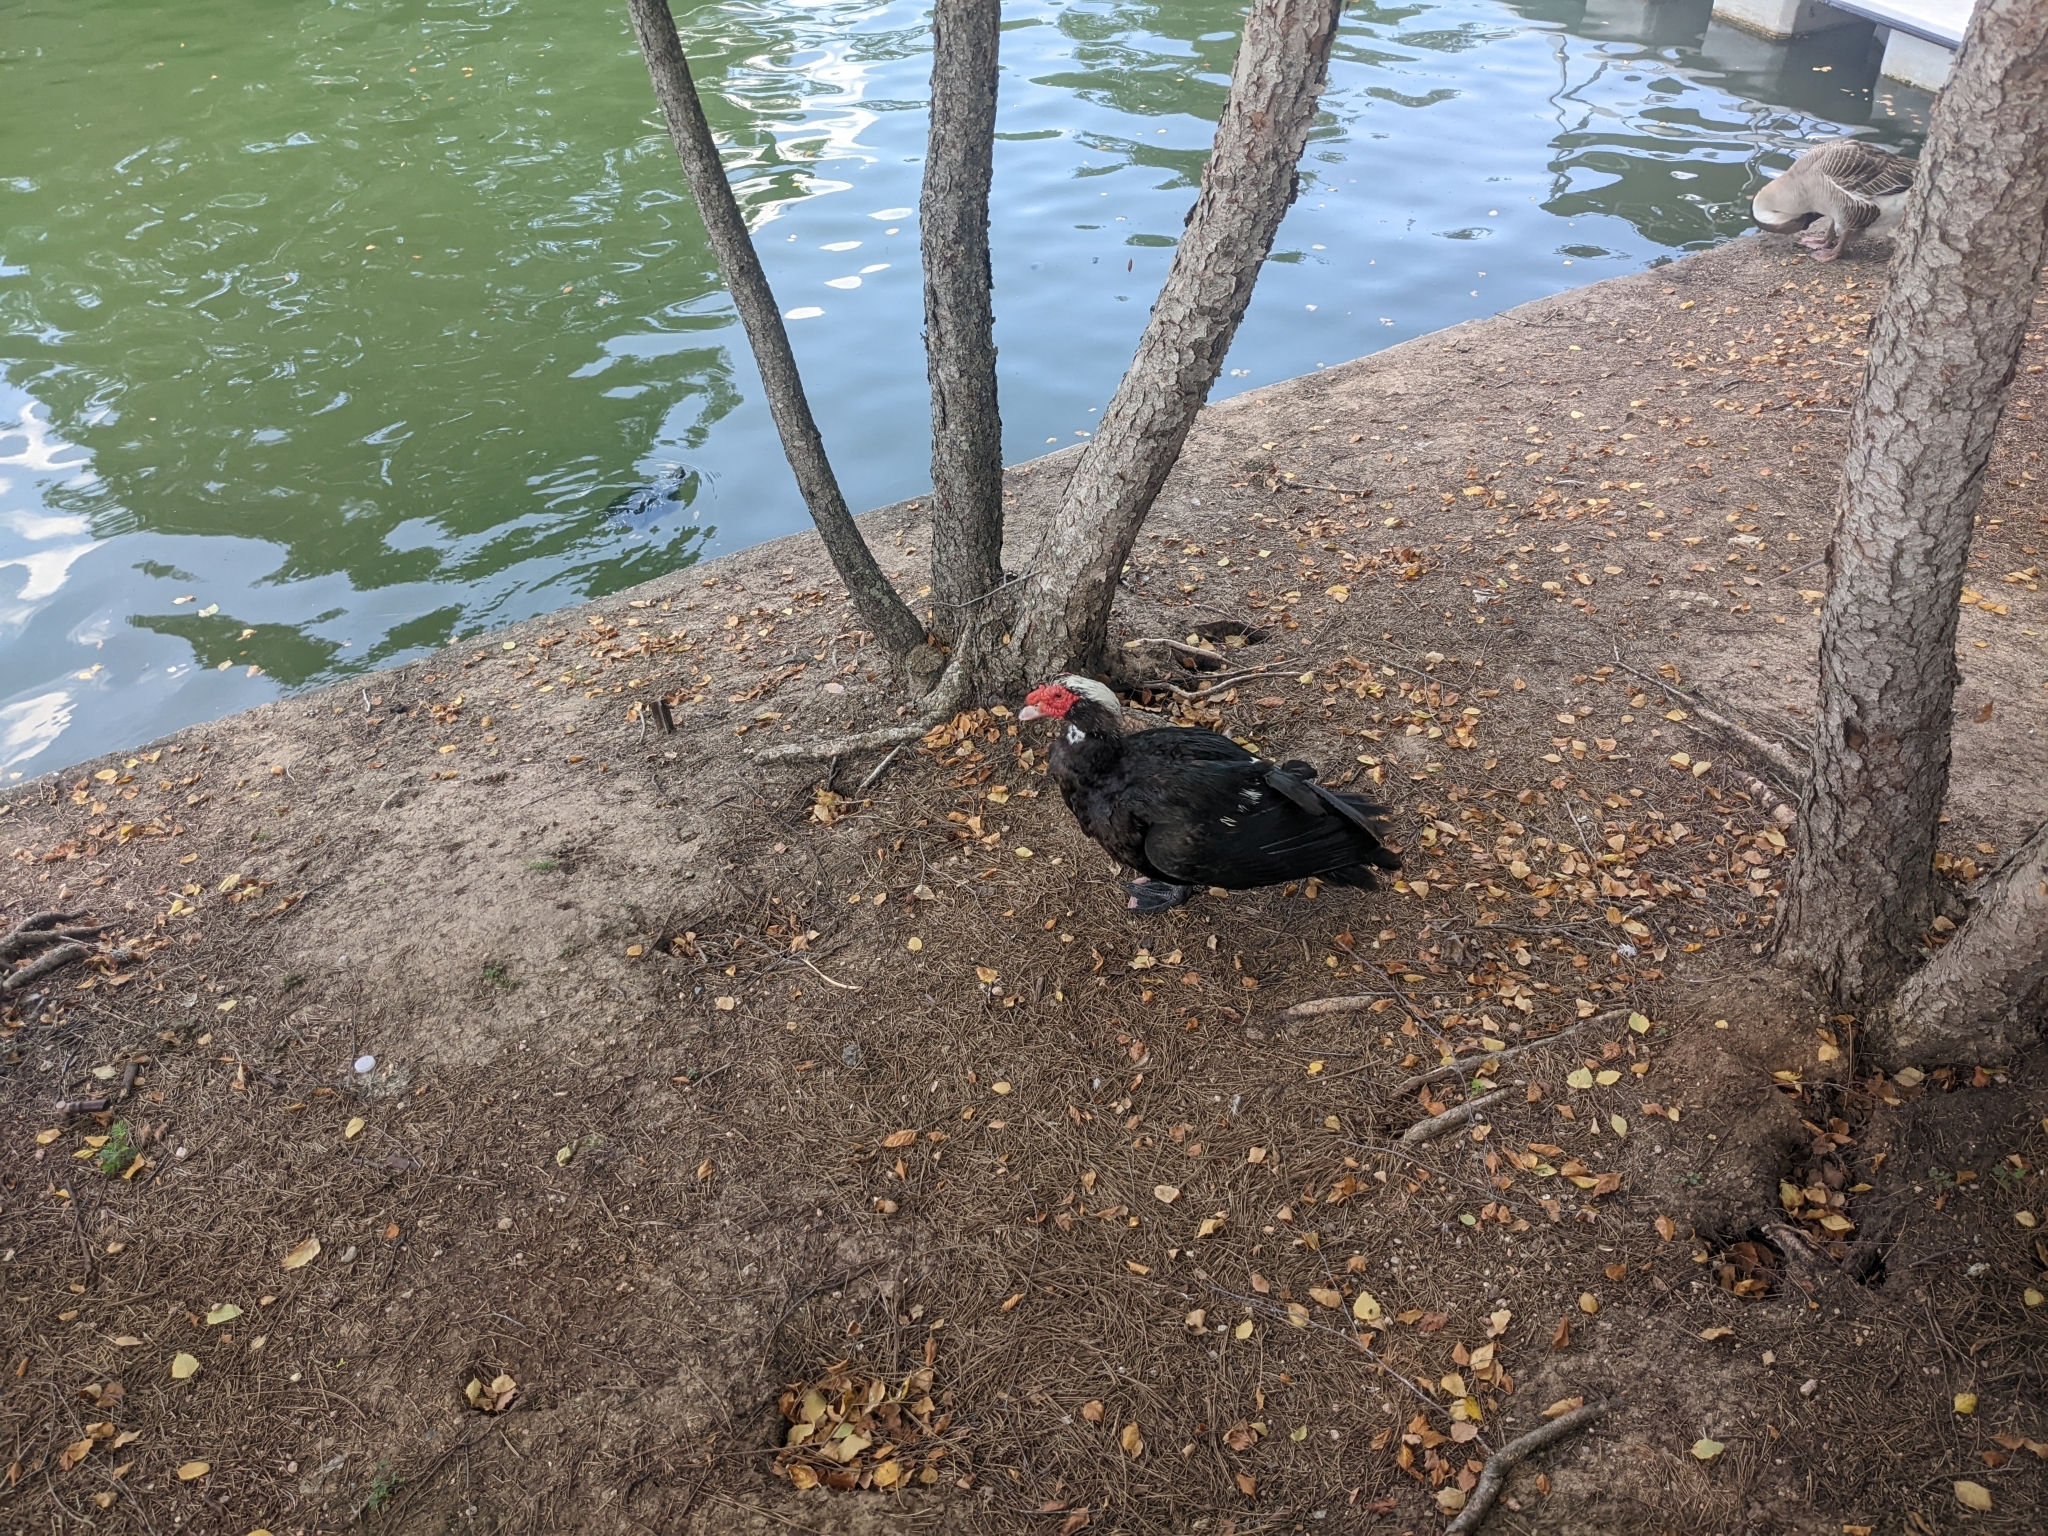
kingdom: Animalia
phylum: Chordata
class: Aves
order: Anseriformes
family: Anatidae
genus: Cairina
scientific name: Cairina moschata
